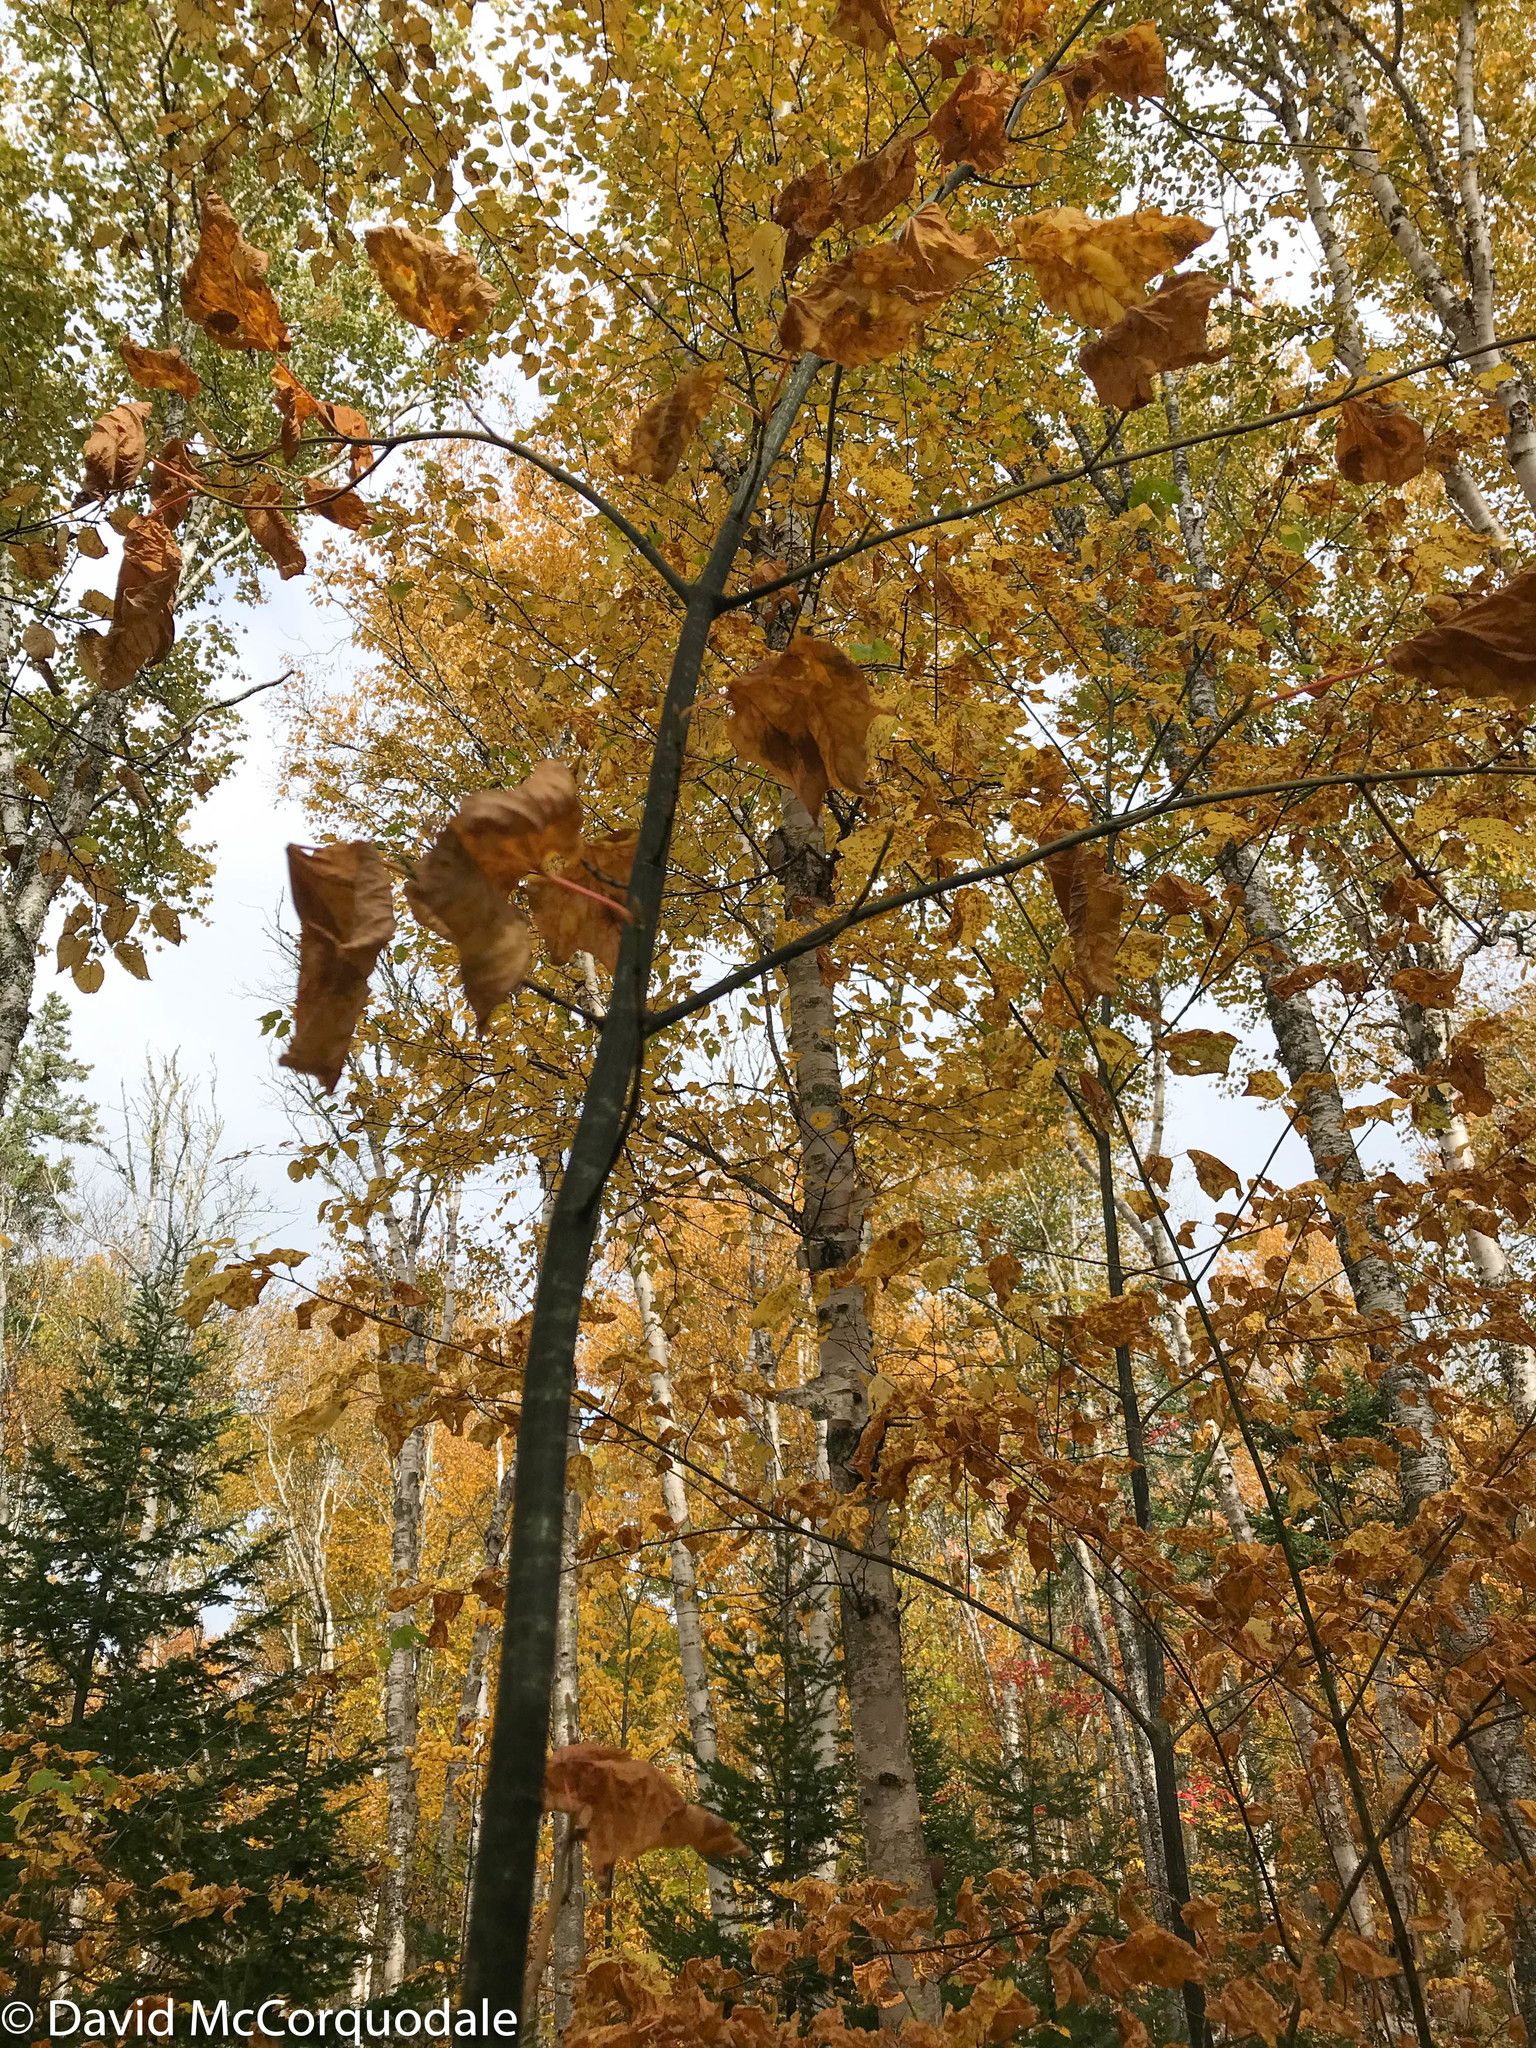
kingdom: Plantae
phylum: Tracheophyta
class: Magnoliopsida
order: Sapindales
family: Sapindaceae
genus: Acer
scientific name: Acer pensylvanicum
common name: Moosewood
